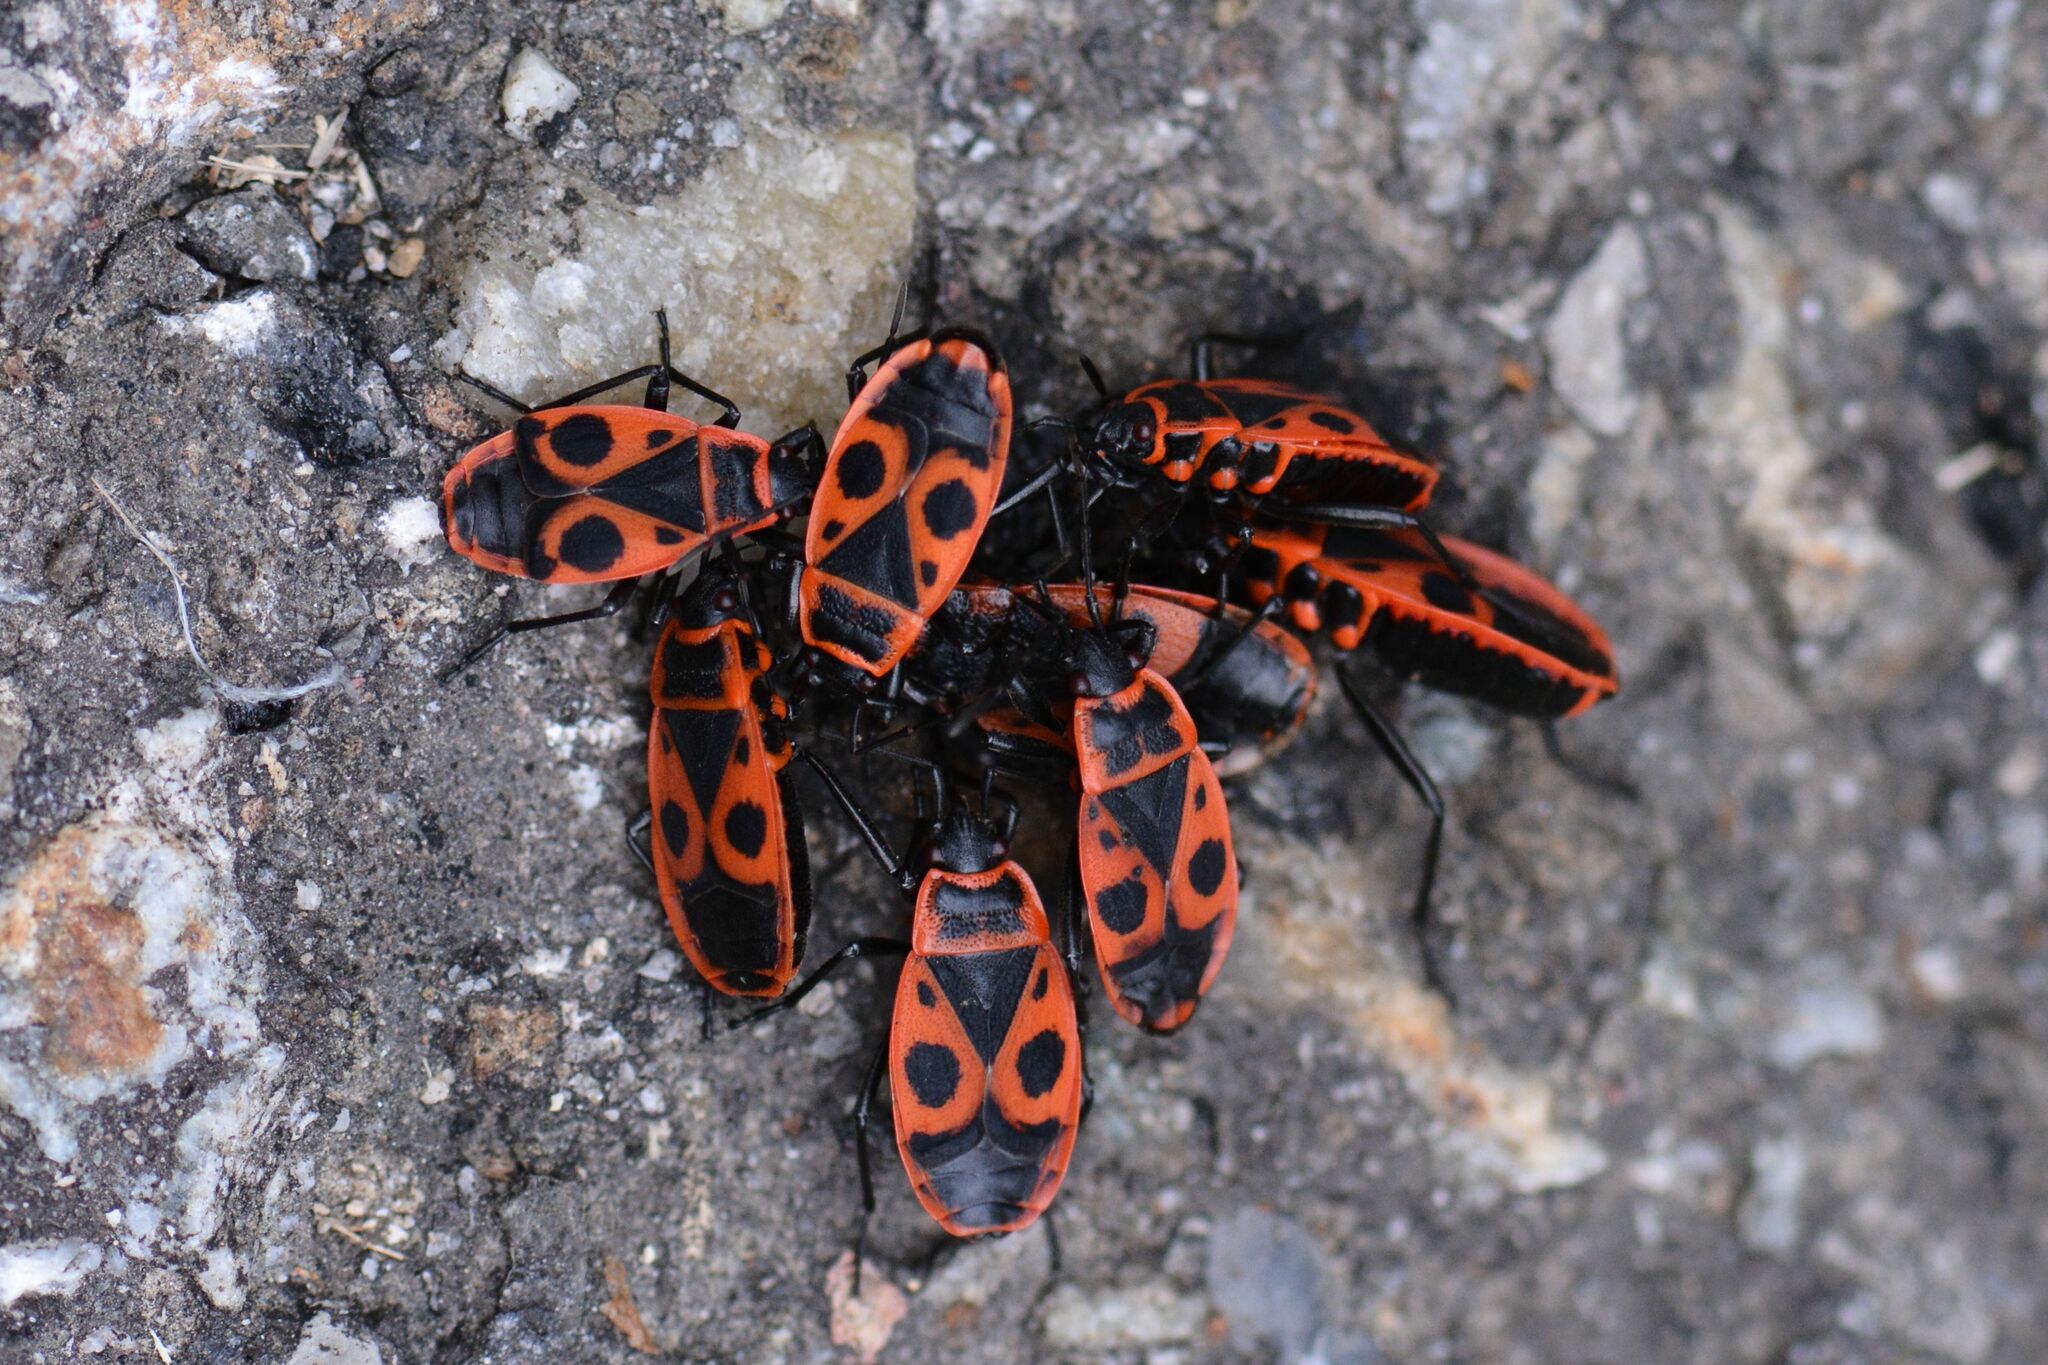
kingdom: Animalia
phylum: Arthropoda
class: Insecta
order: Hemiptera
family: Pyrrhocoridae
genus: Pyrrhocoris
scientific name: Pyrrhocoris apterus
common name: Firebug
